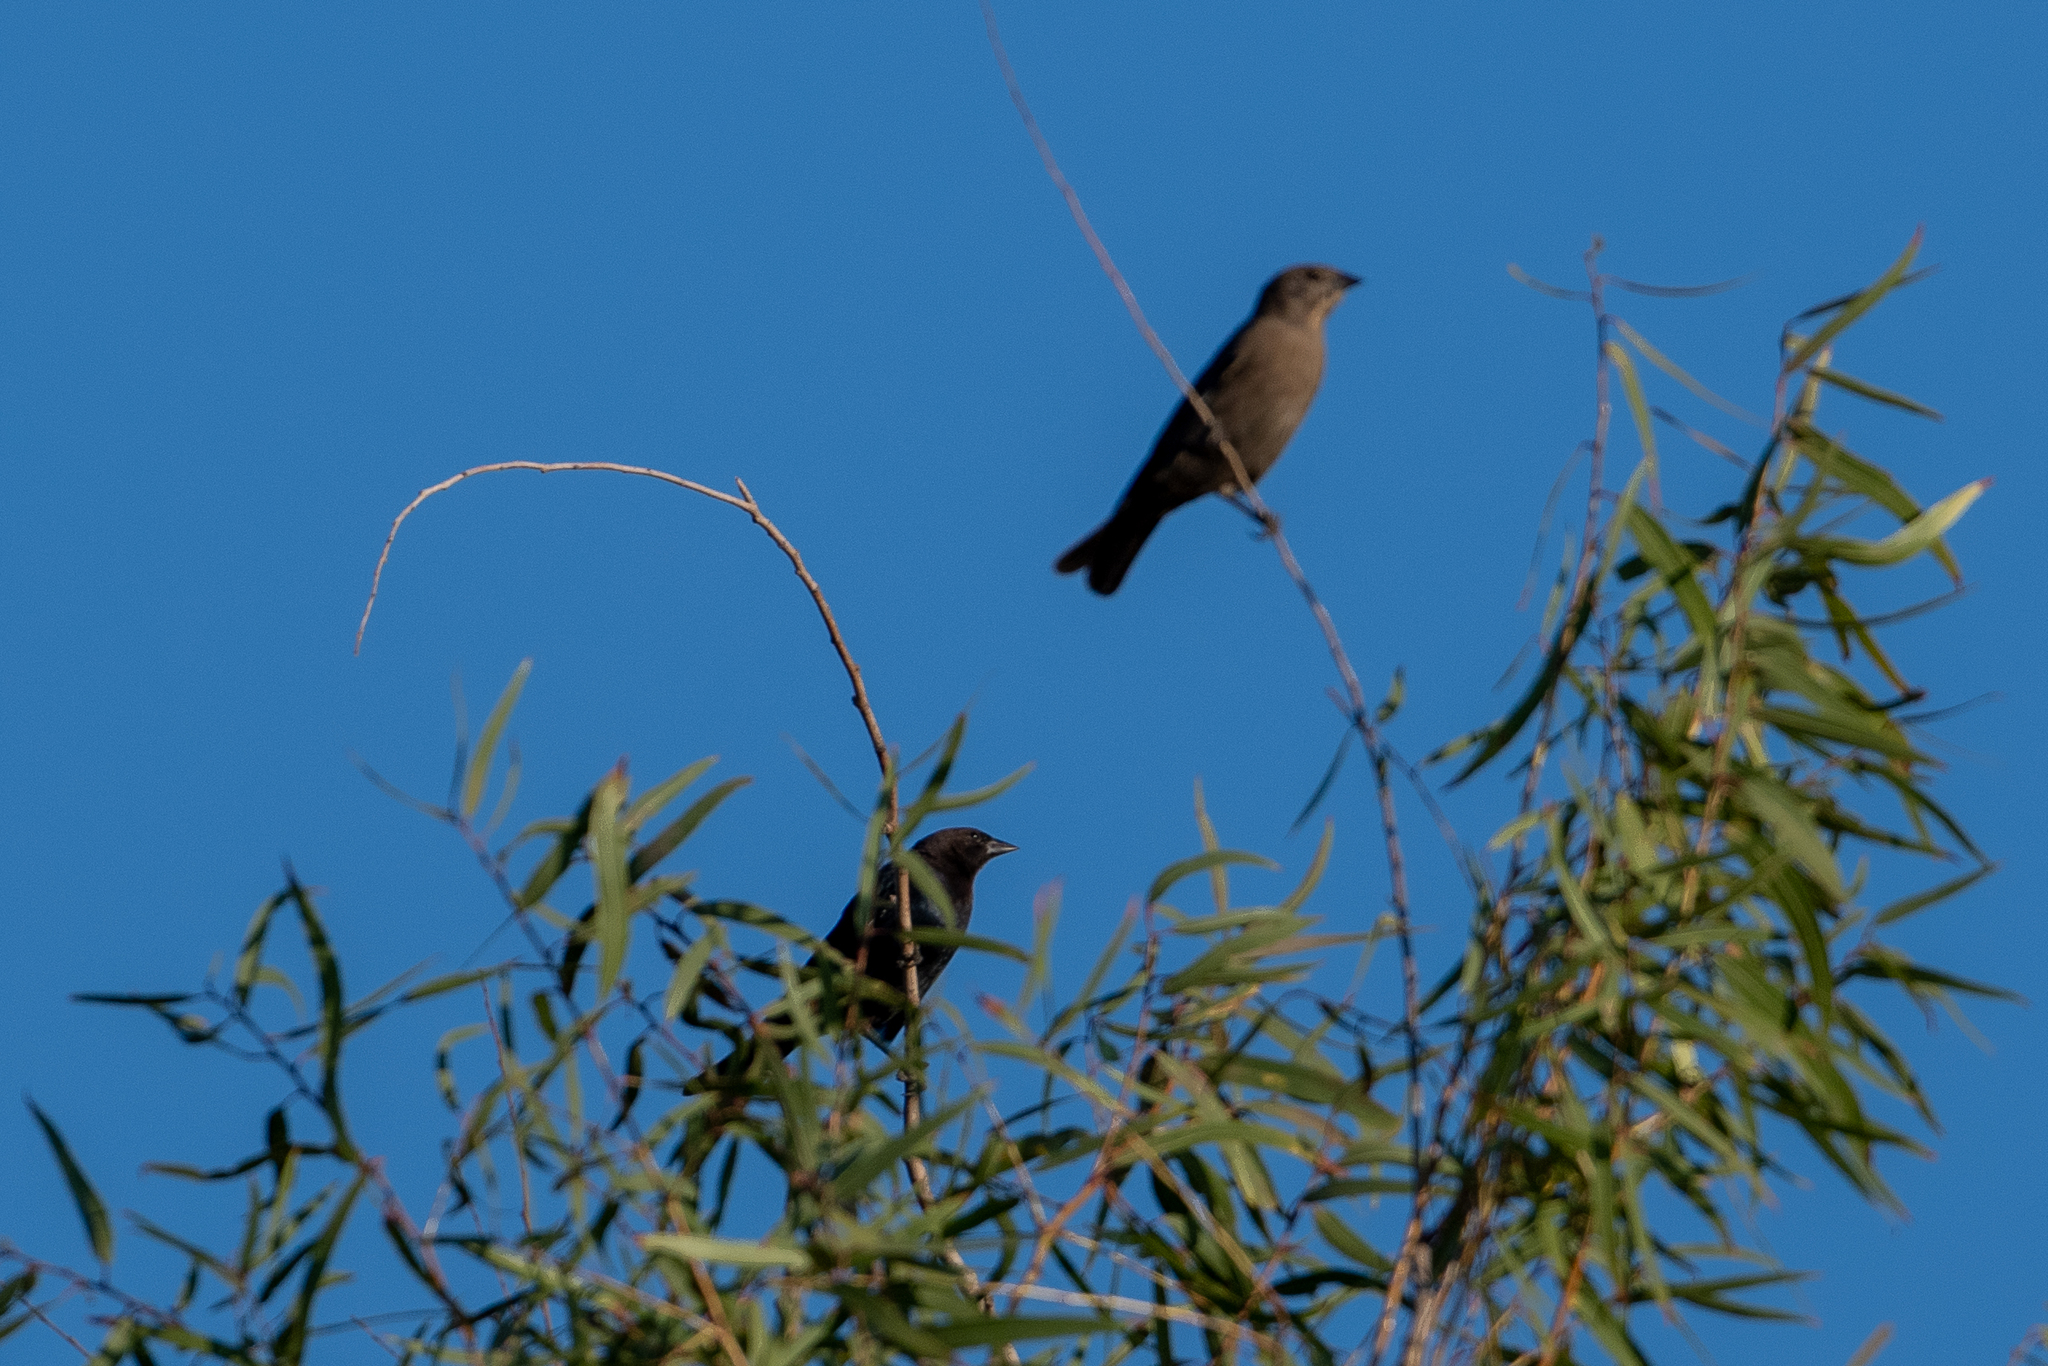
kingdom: Animalia
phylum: Chordata
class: Aves
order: Passeriformes
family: Icteridae
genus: Molothrus
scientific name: Molothrus ater
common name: Brown-headed cowbird
